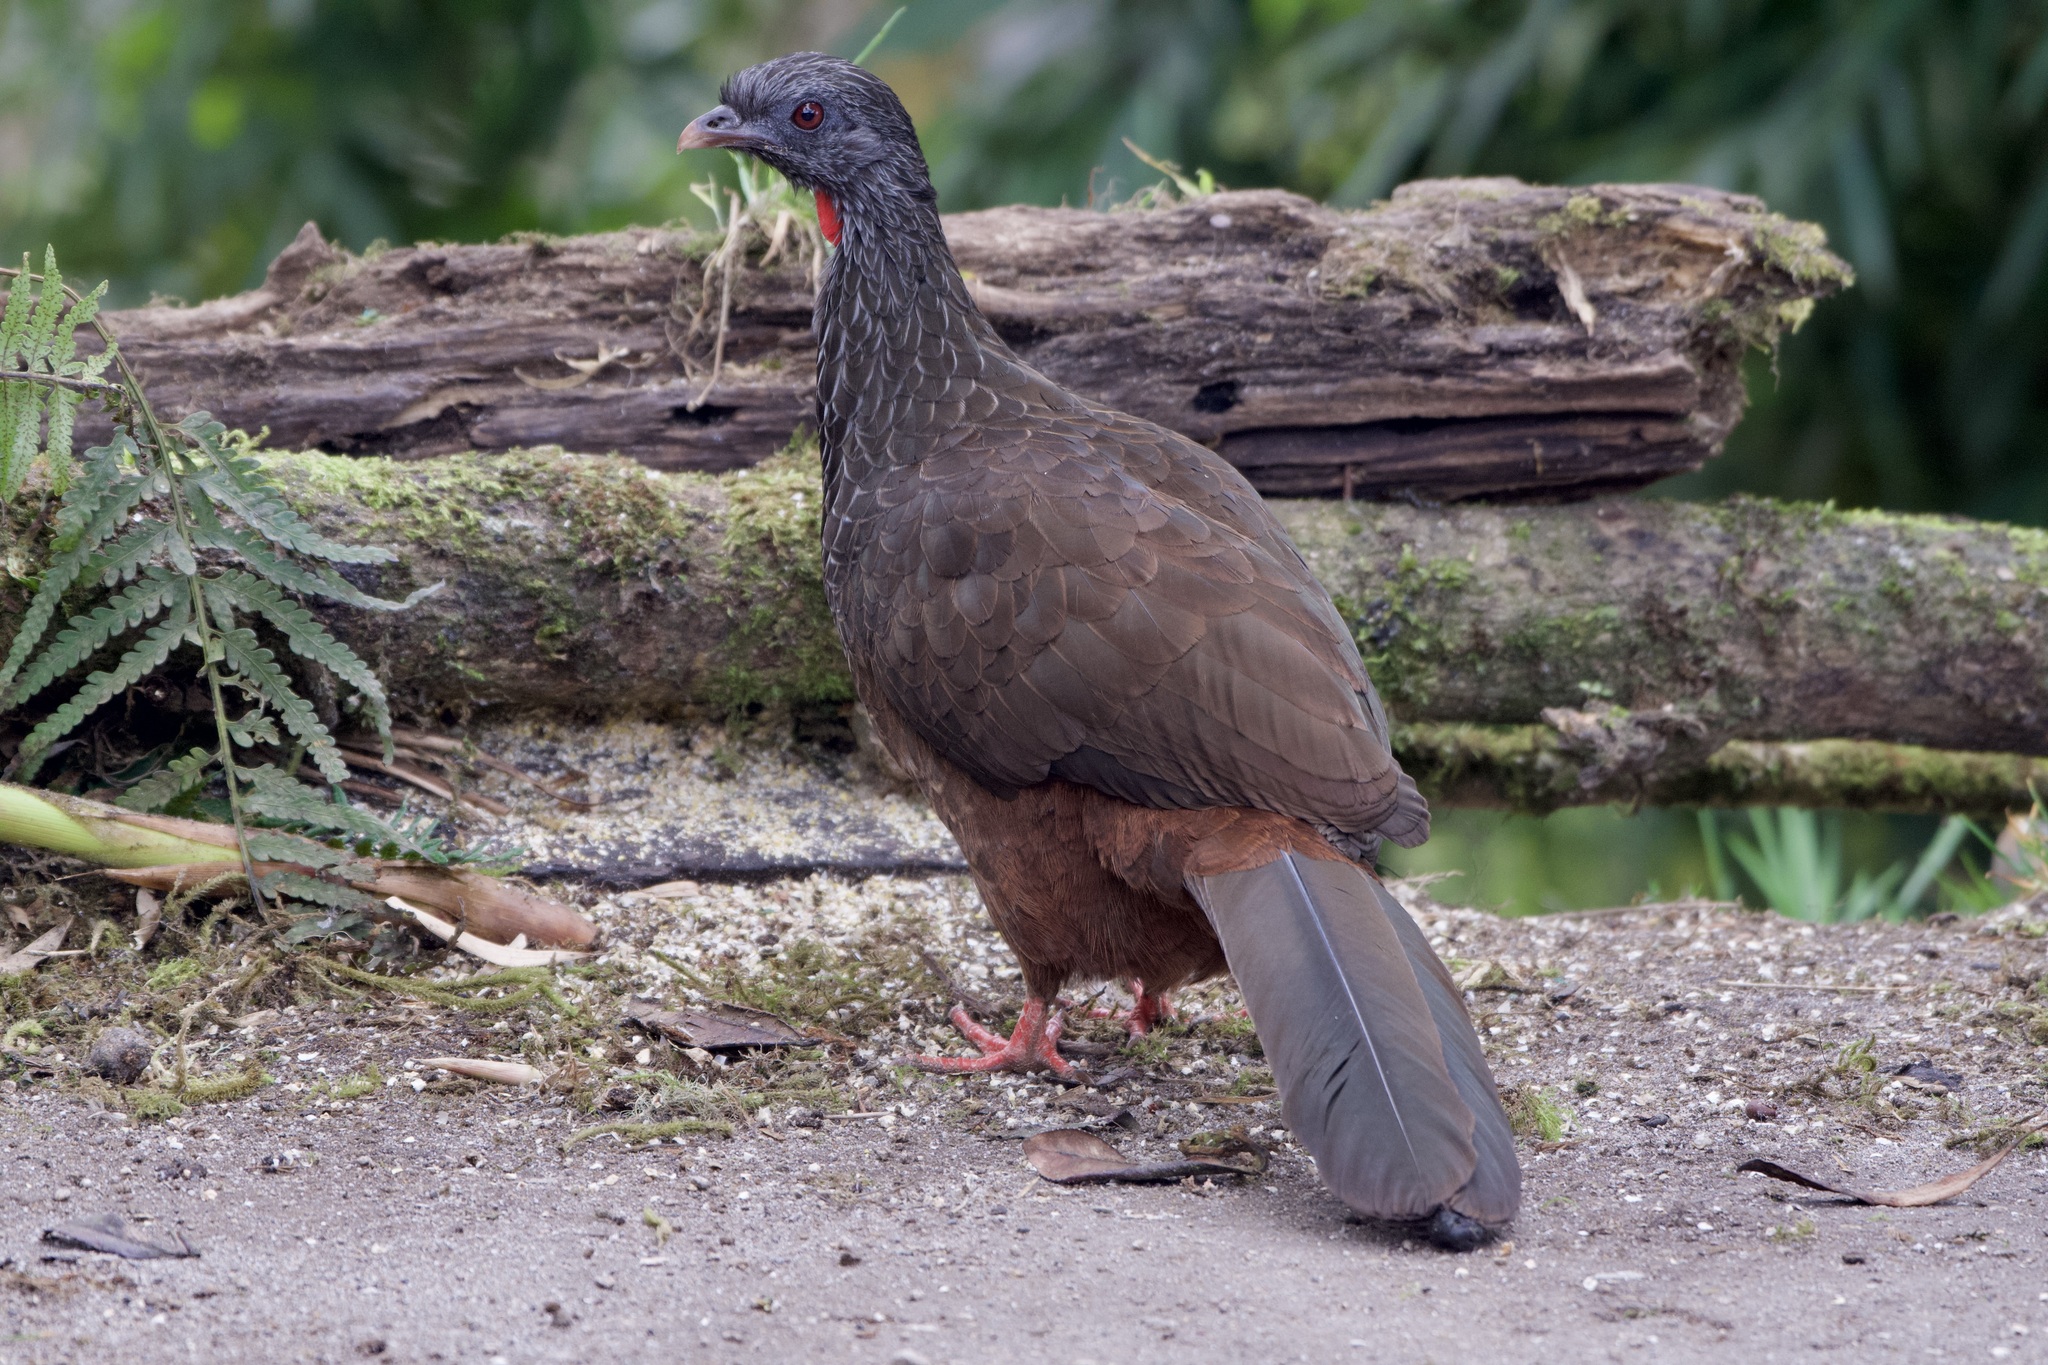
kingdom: Animalia
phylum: Chordata
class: Aves
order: Galliformes
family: Cracidae
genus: Penelope
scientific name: Penelope montagnii
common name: Andean guan
